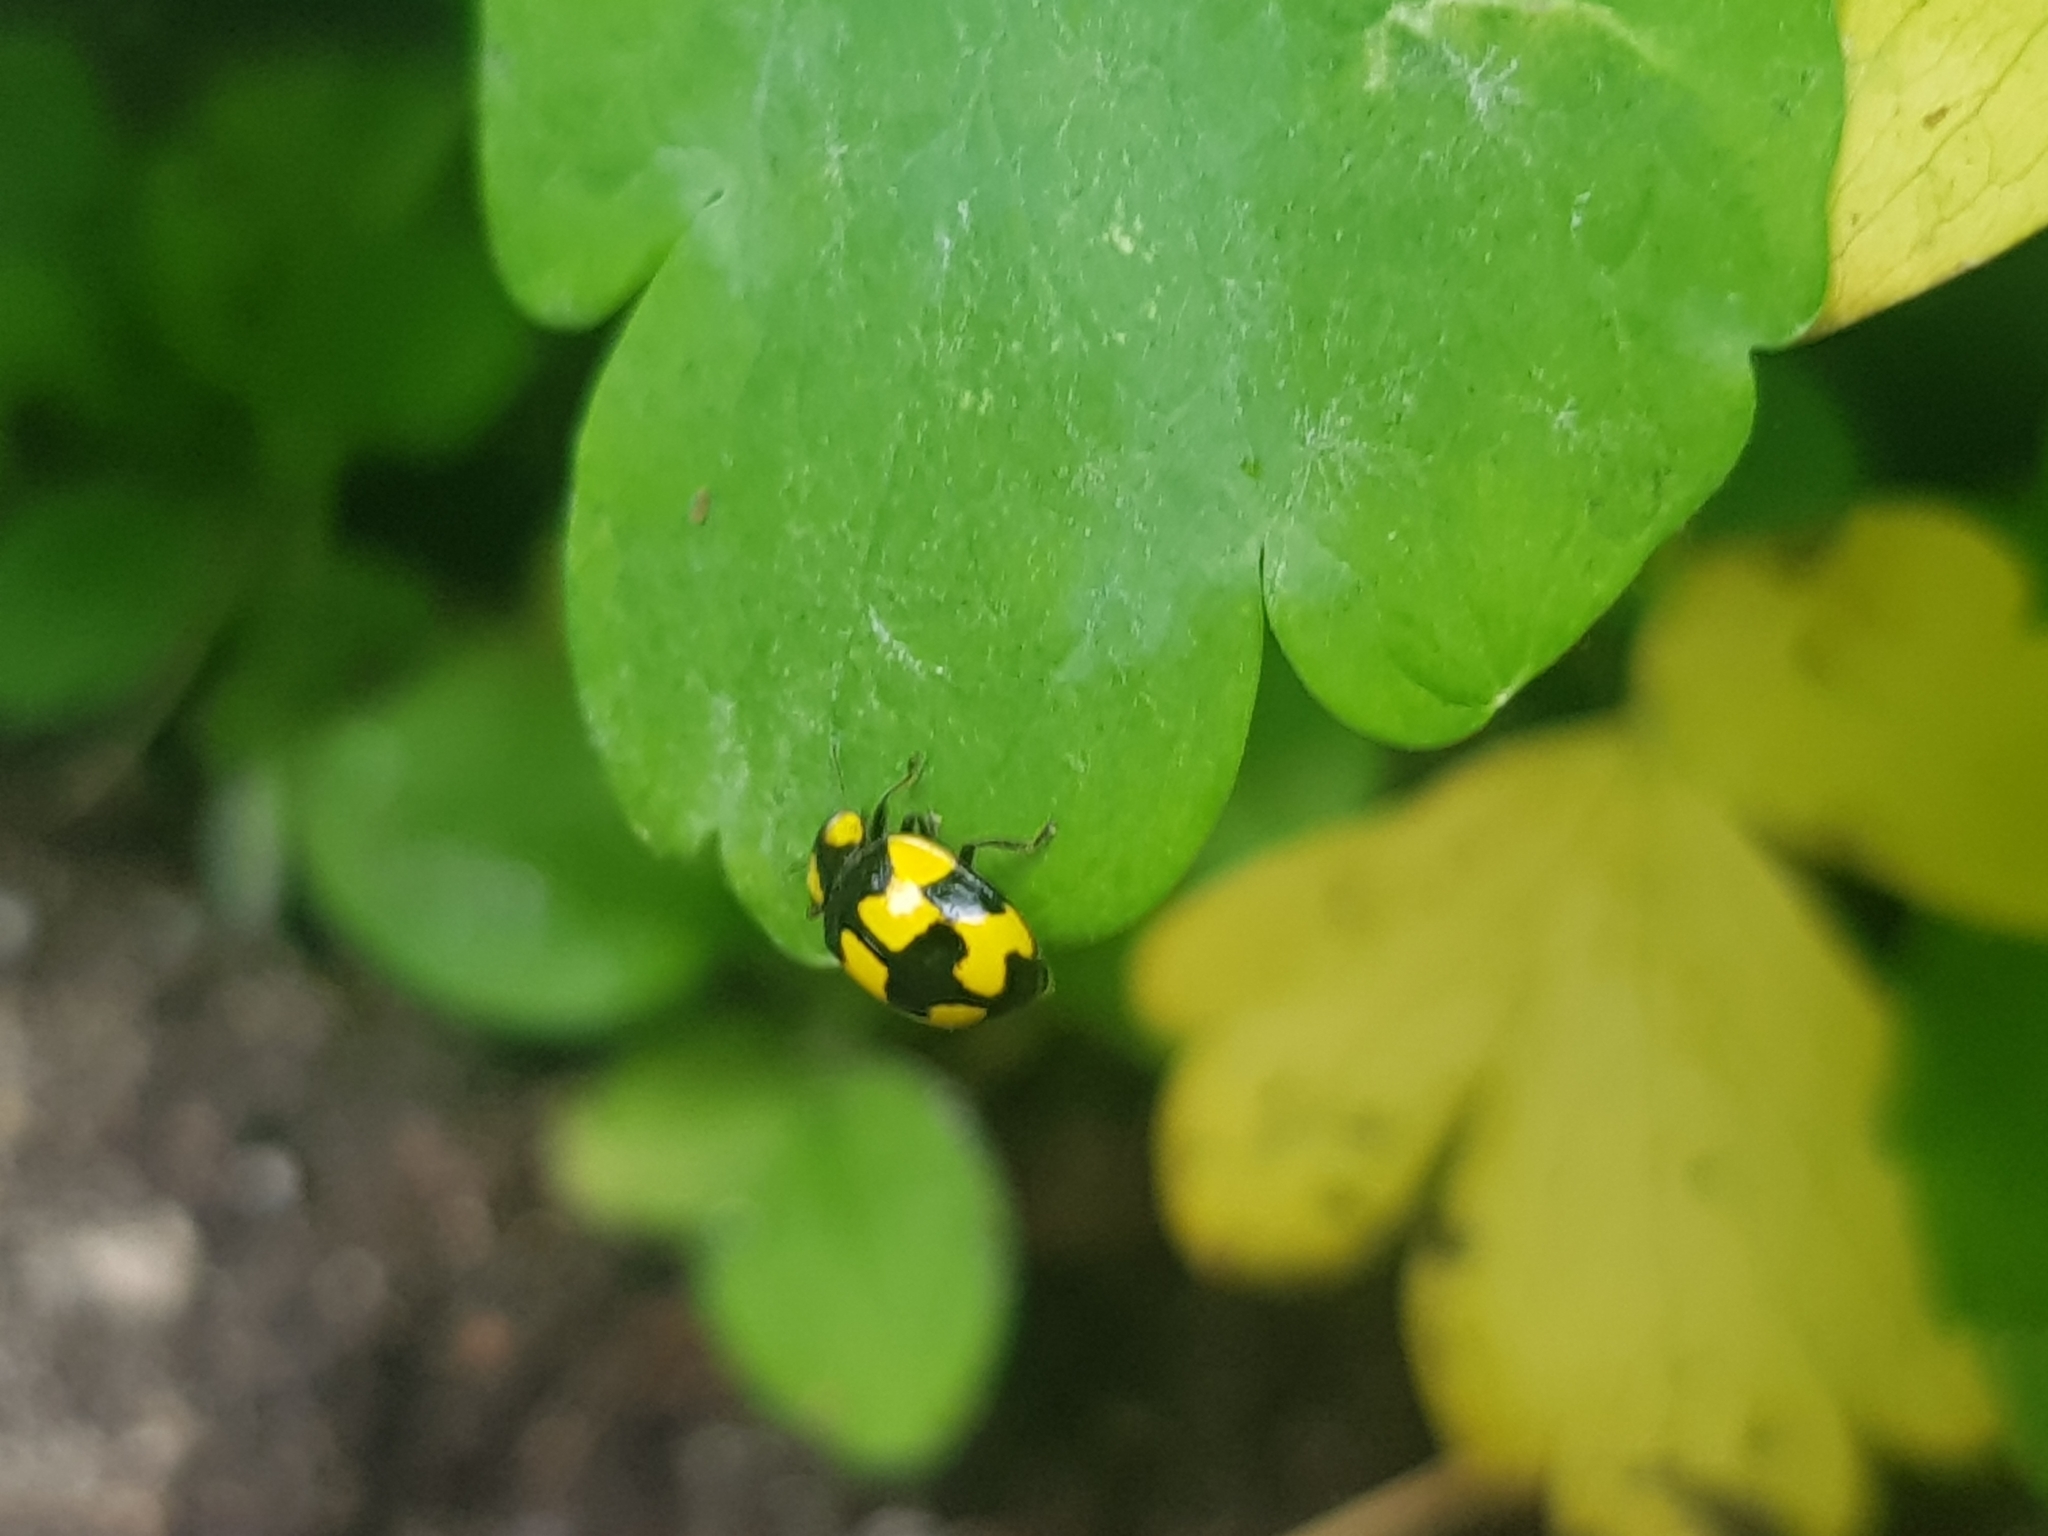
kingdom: Animalia
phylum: Arthropoda
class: Insecta
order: Coleoptera
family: Coccinellidae
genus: Illeis
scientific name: Illeis galbula
